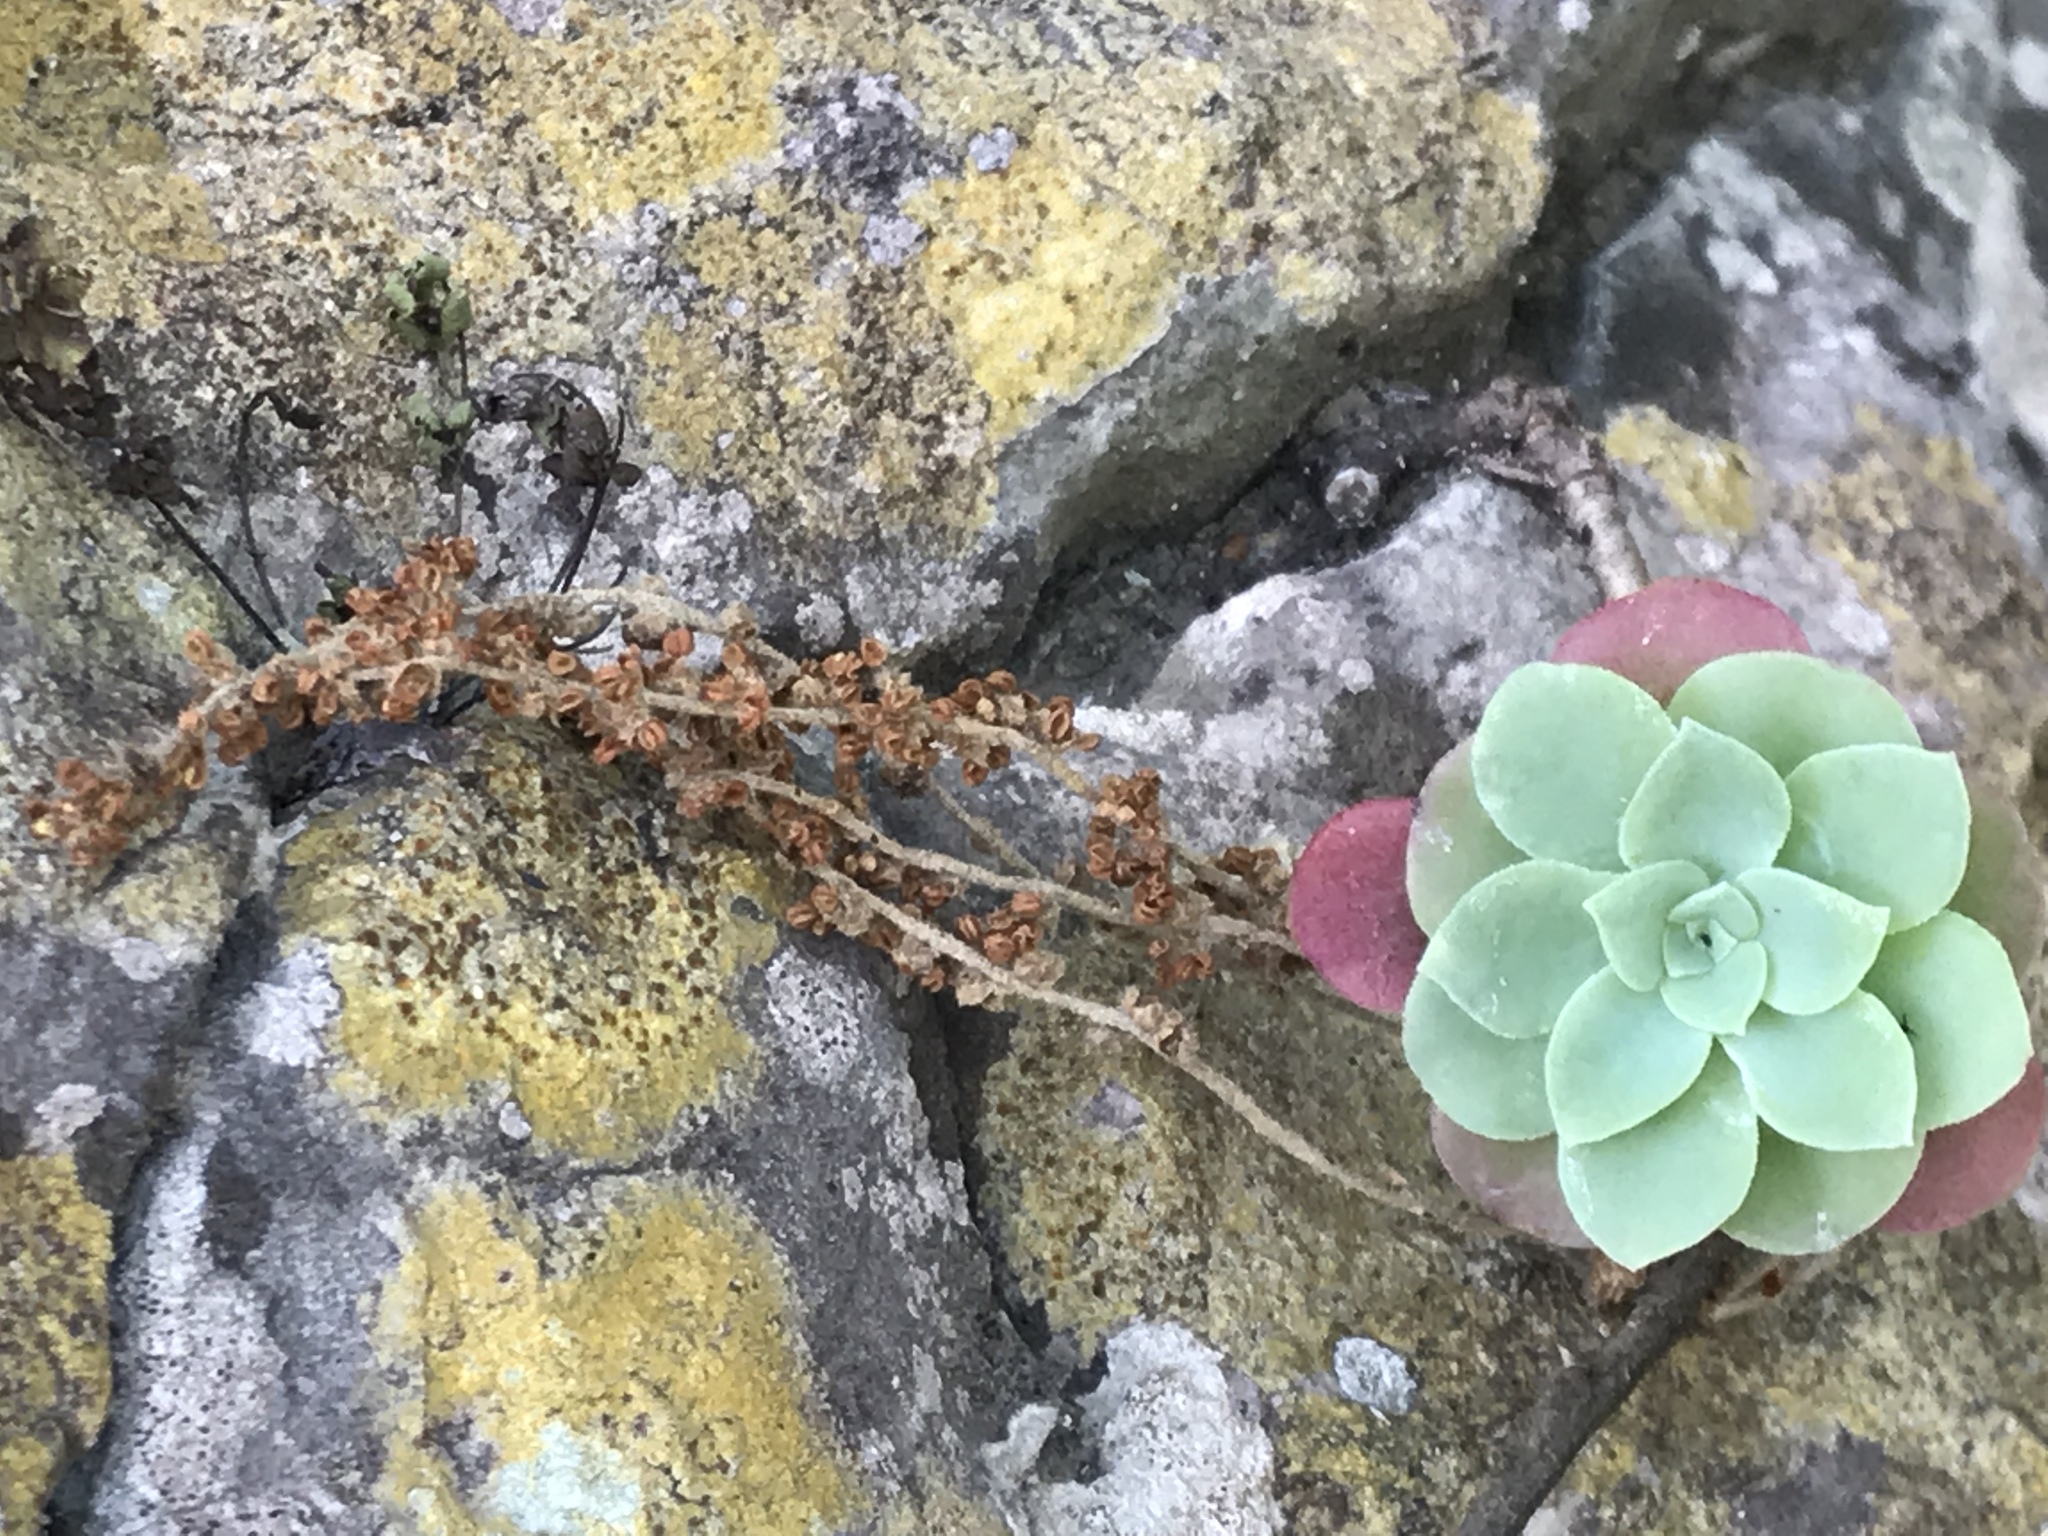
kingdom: Plantae
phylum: Tracheophyta
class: Magnoliopsida
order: Saxifragales
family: Crassulaceae
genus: Sedum
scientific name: Sedum palmeri
